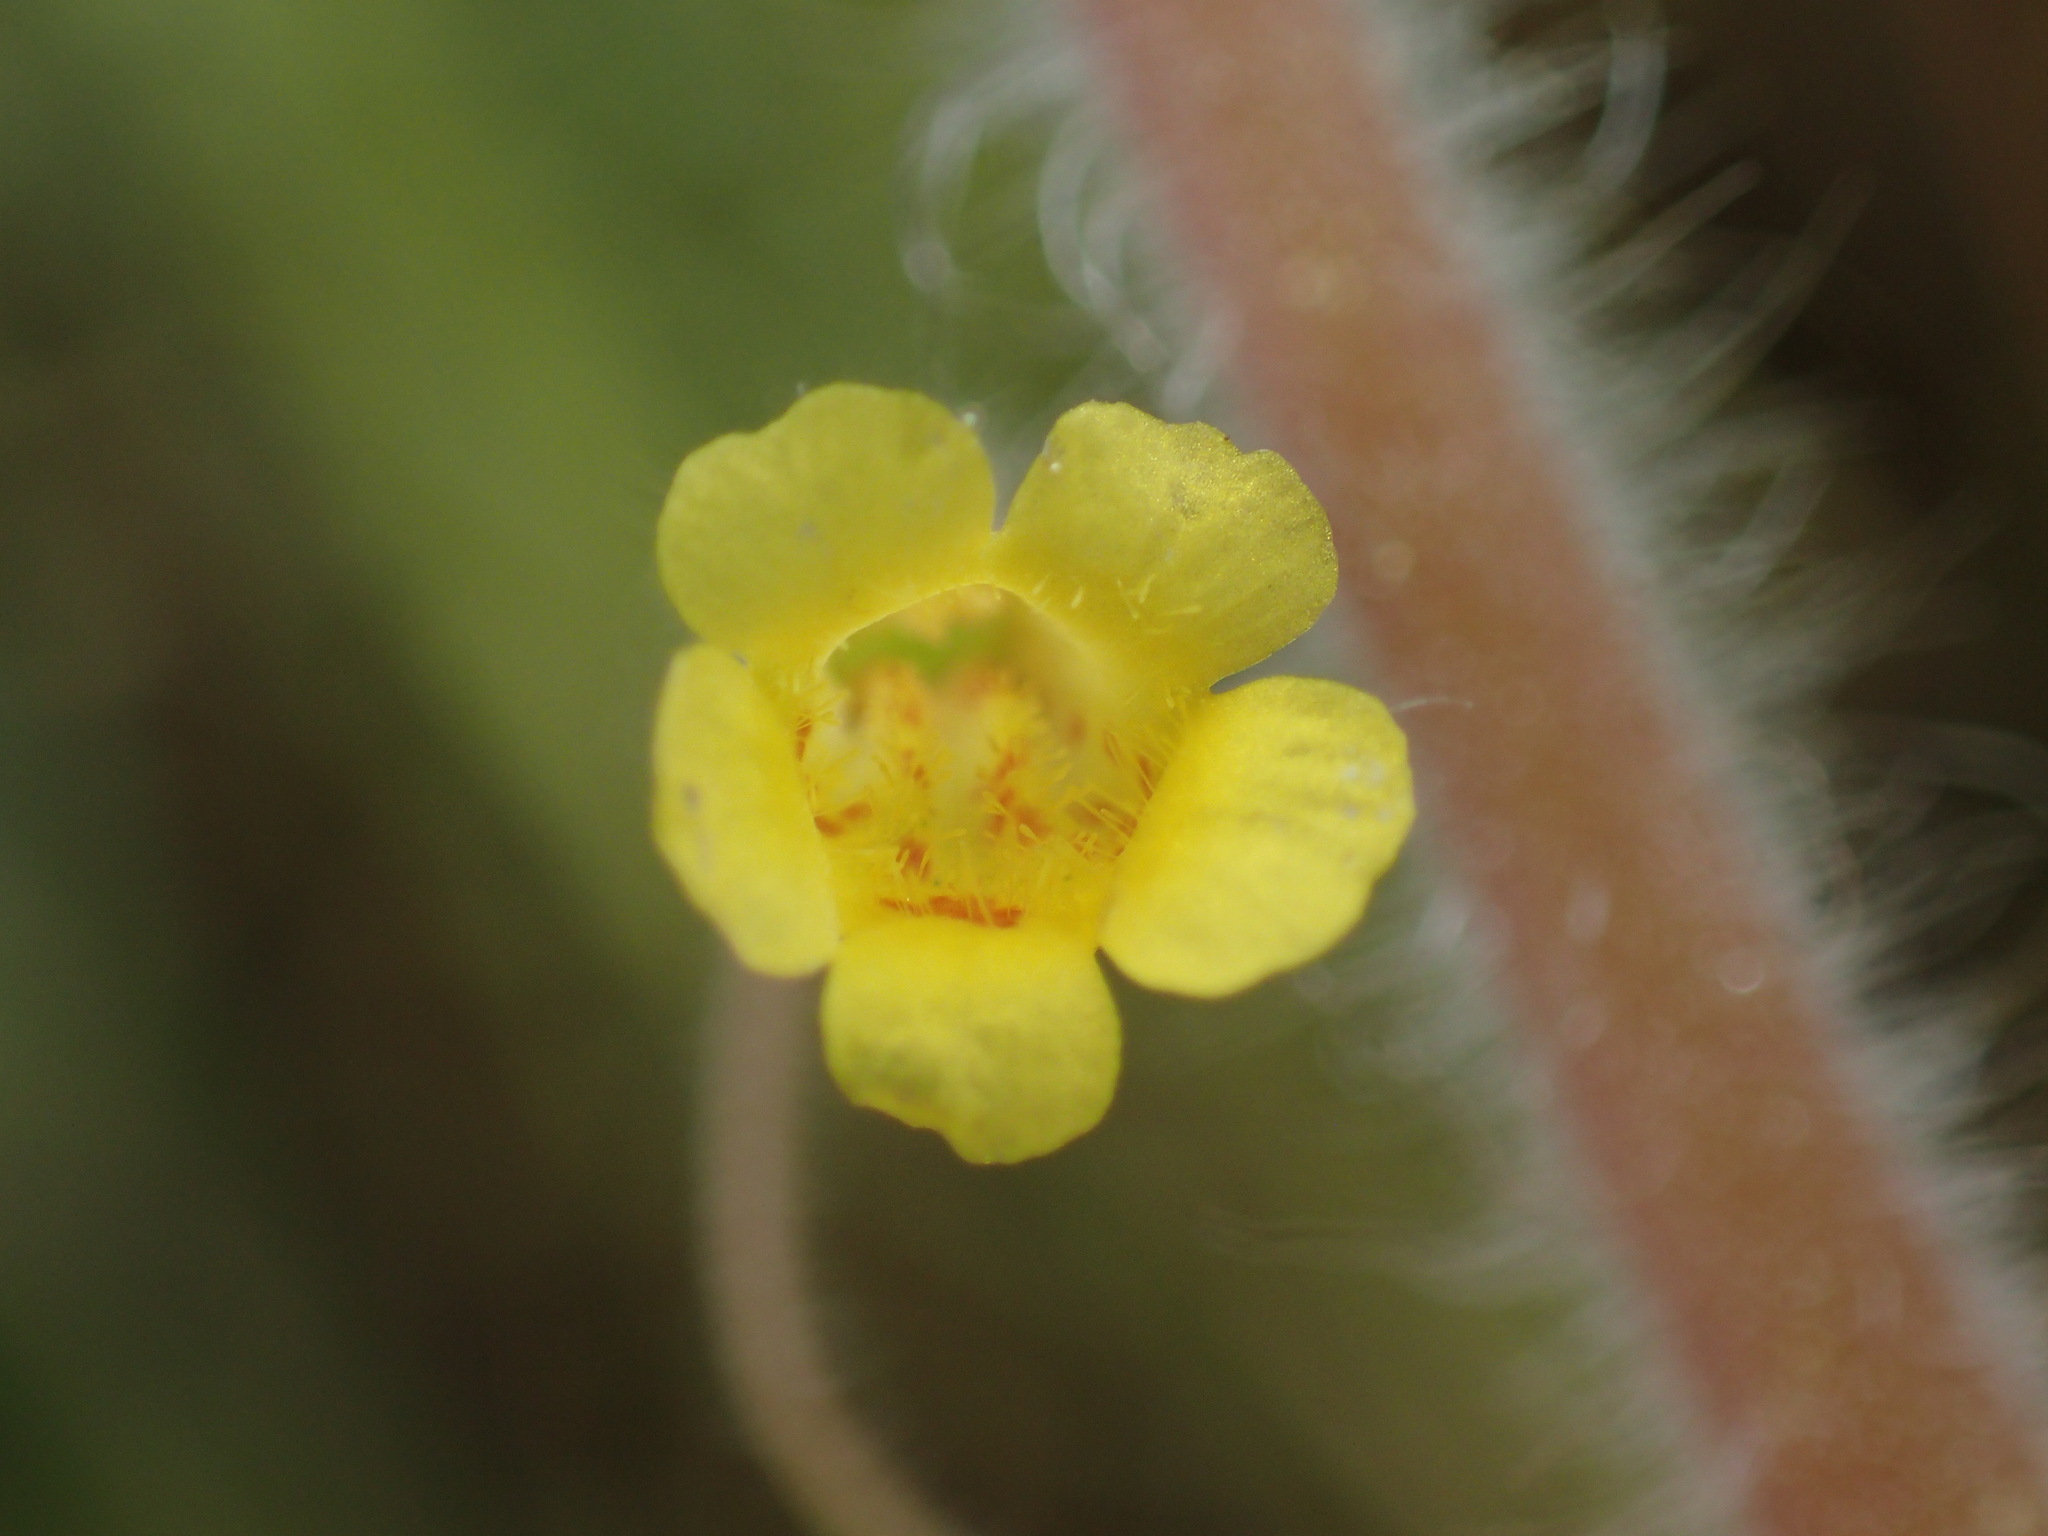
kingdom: Plantae
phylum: Tracheophyta
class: Magnoliopsida
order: Lamiales
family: Phrymaceae
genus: Erythranthe
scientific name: Erythranthe floribunda
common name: Floriferous monkeyflower
